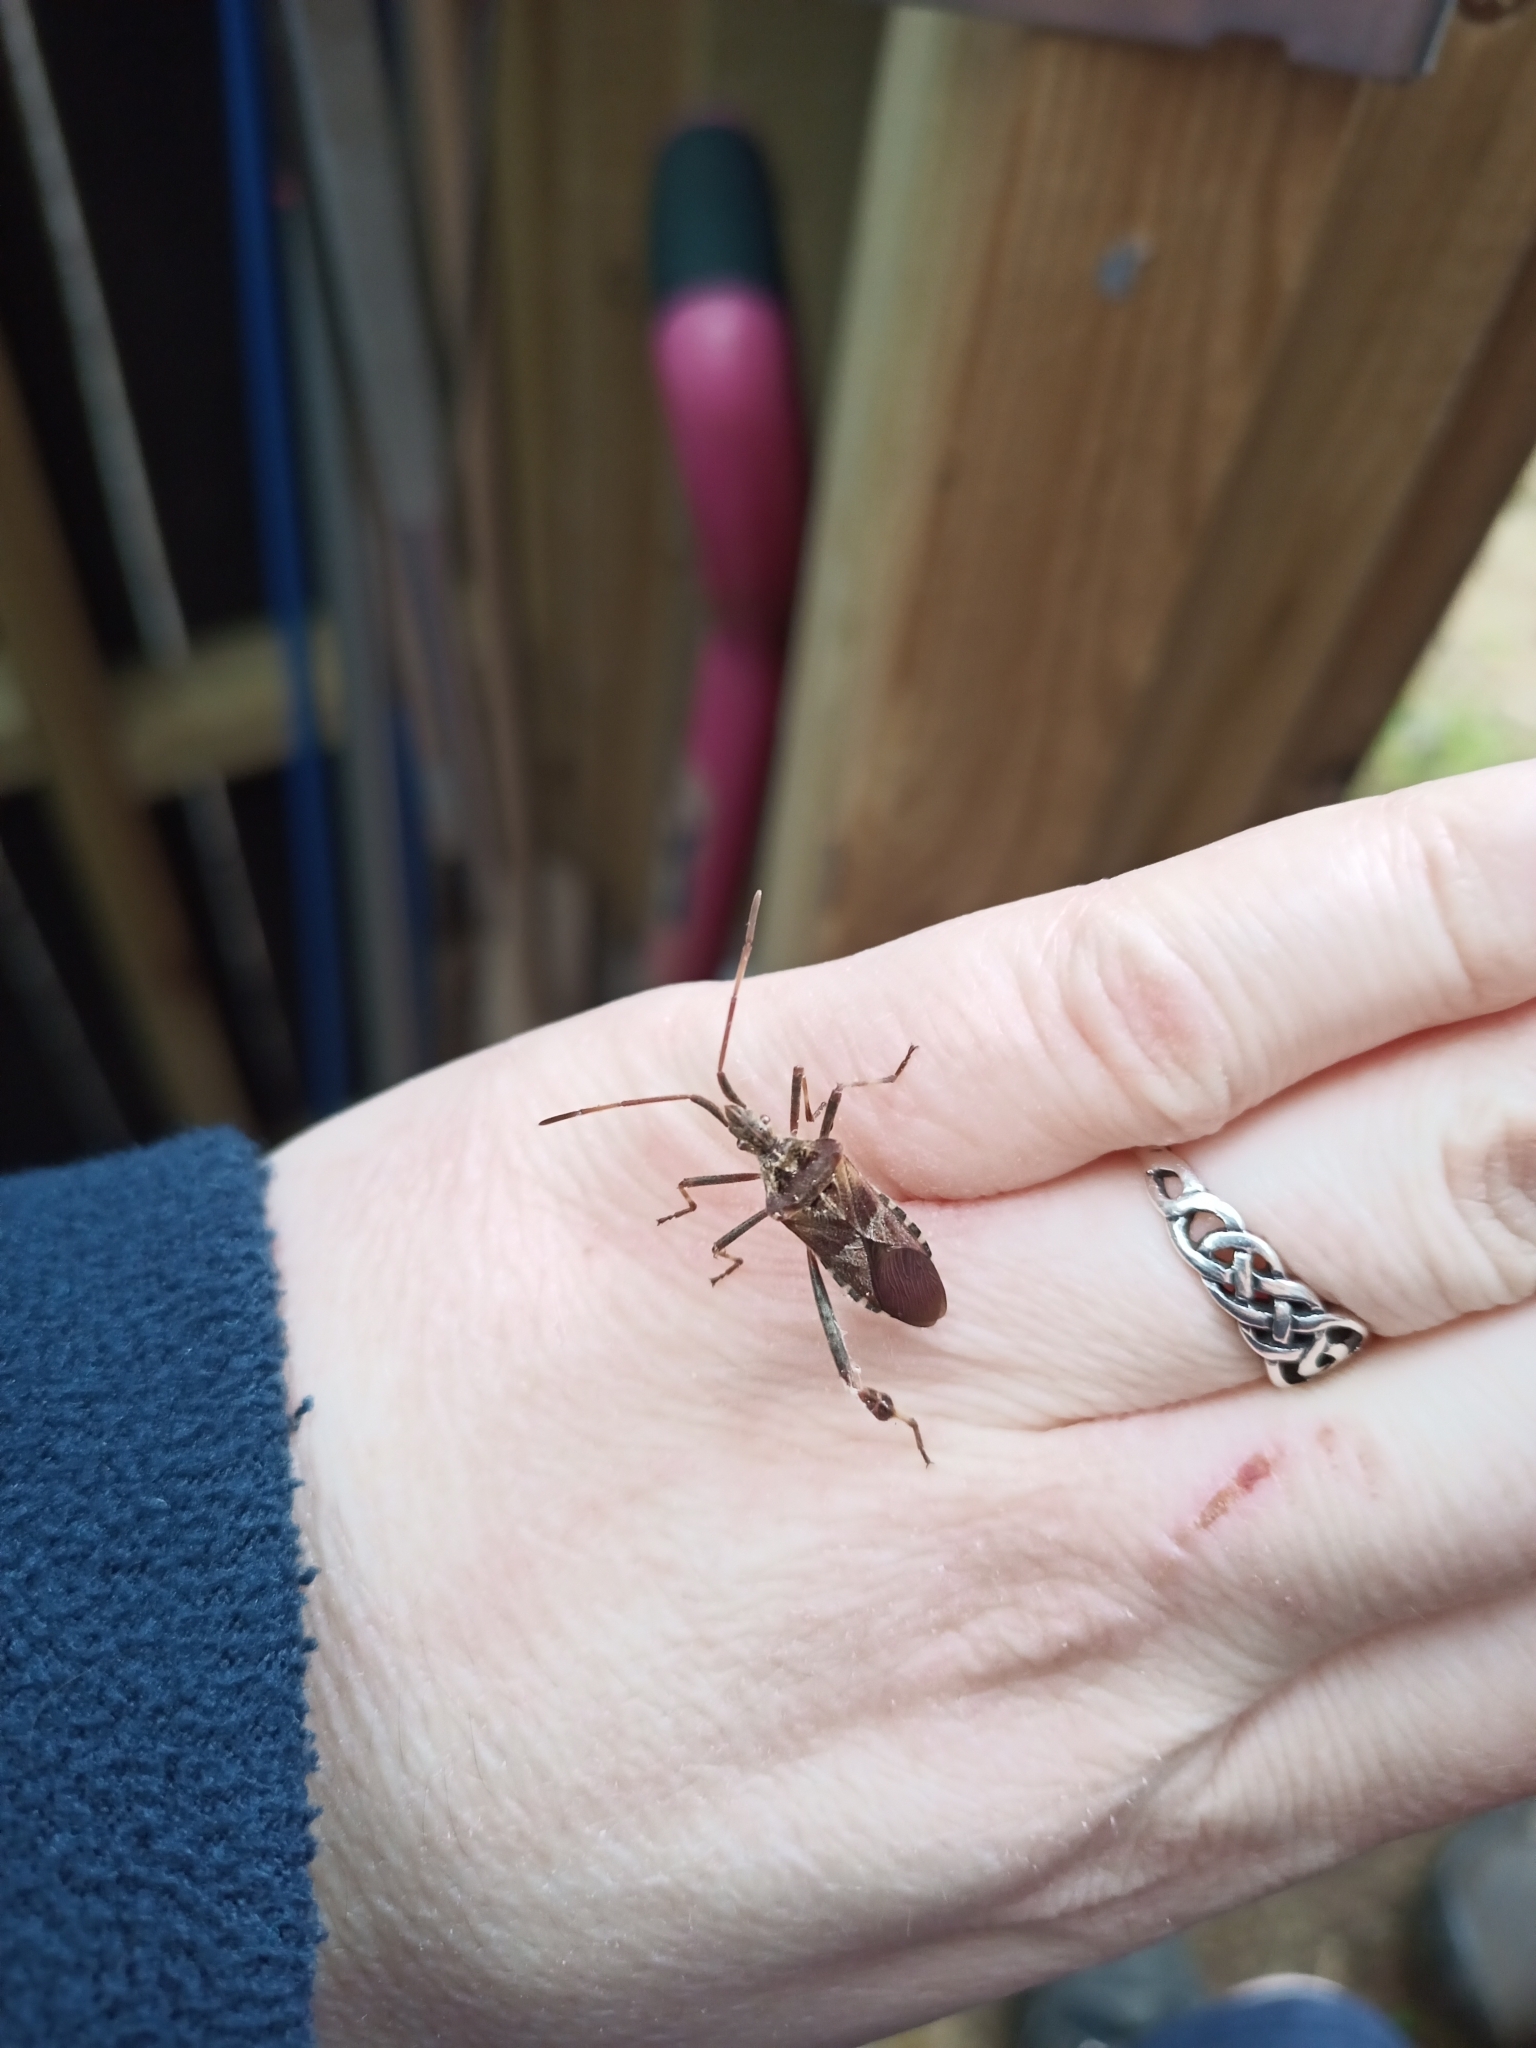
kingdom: Animalia
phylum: Arthropoda
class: Insecta
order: Hemiptera
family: Coreidae
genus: Leptoglossus
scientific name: Leptoglossus occidentalis
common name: Western conifer-seed bug
